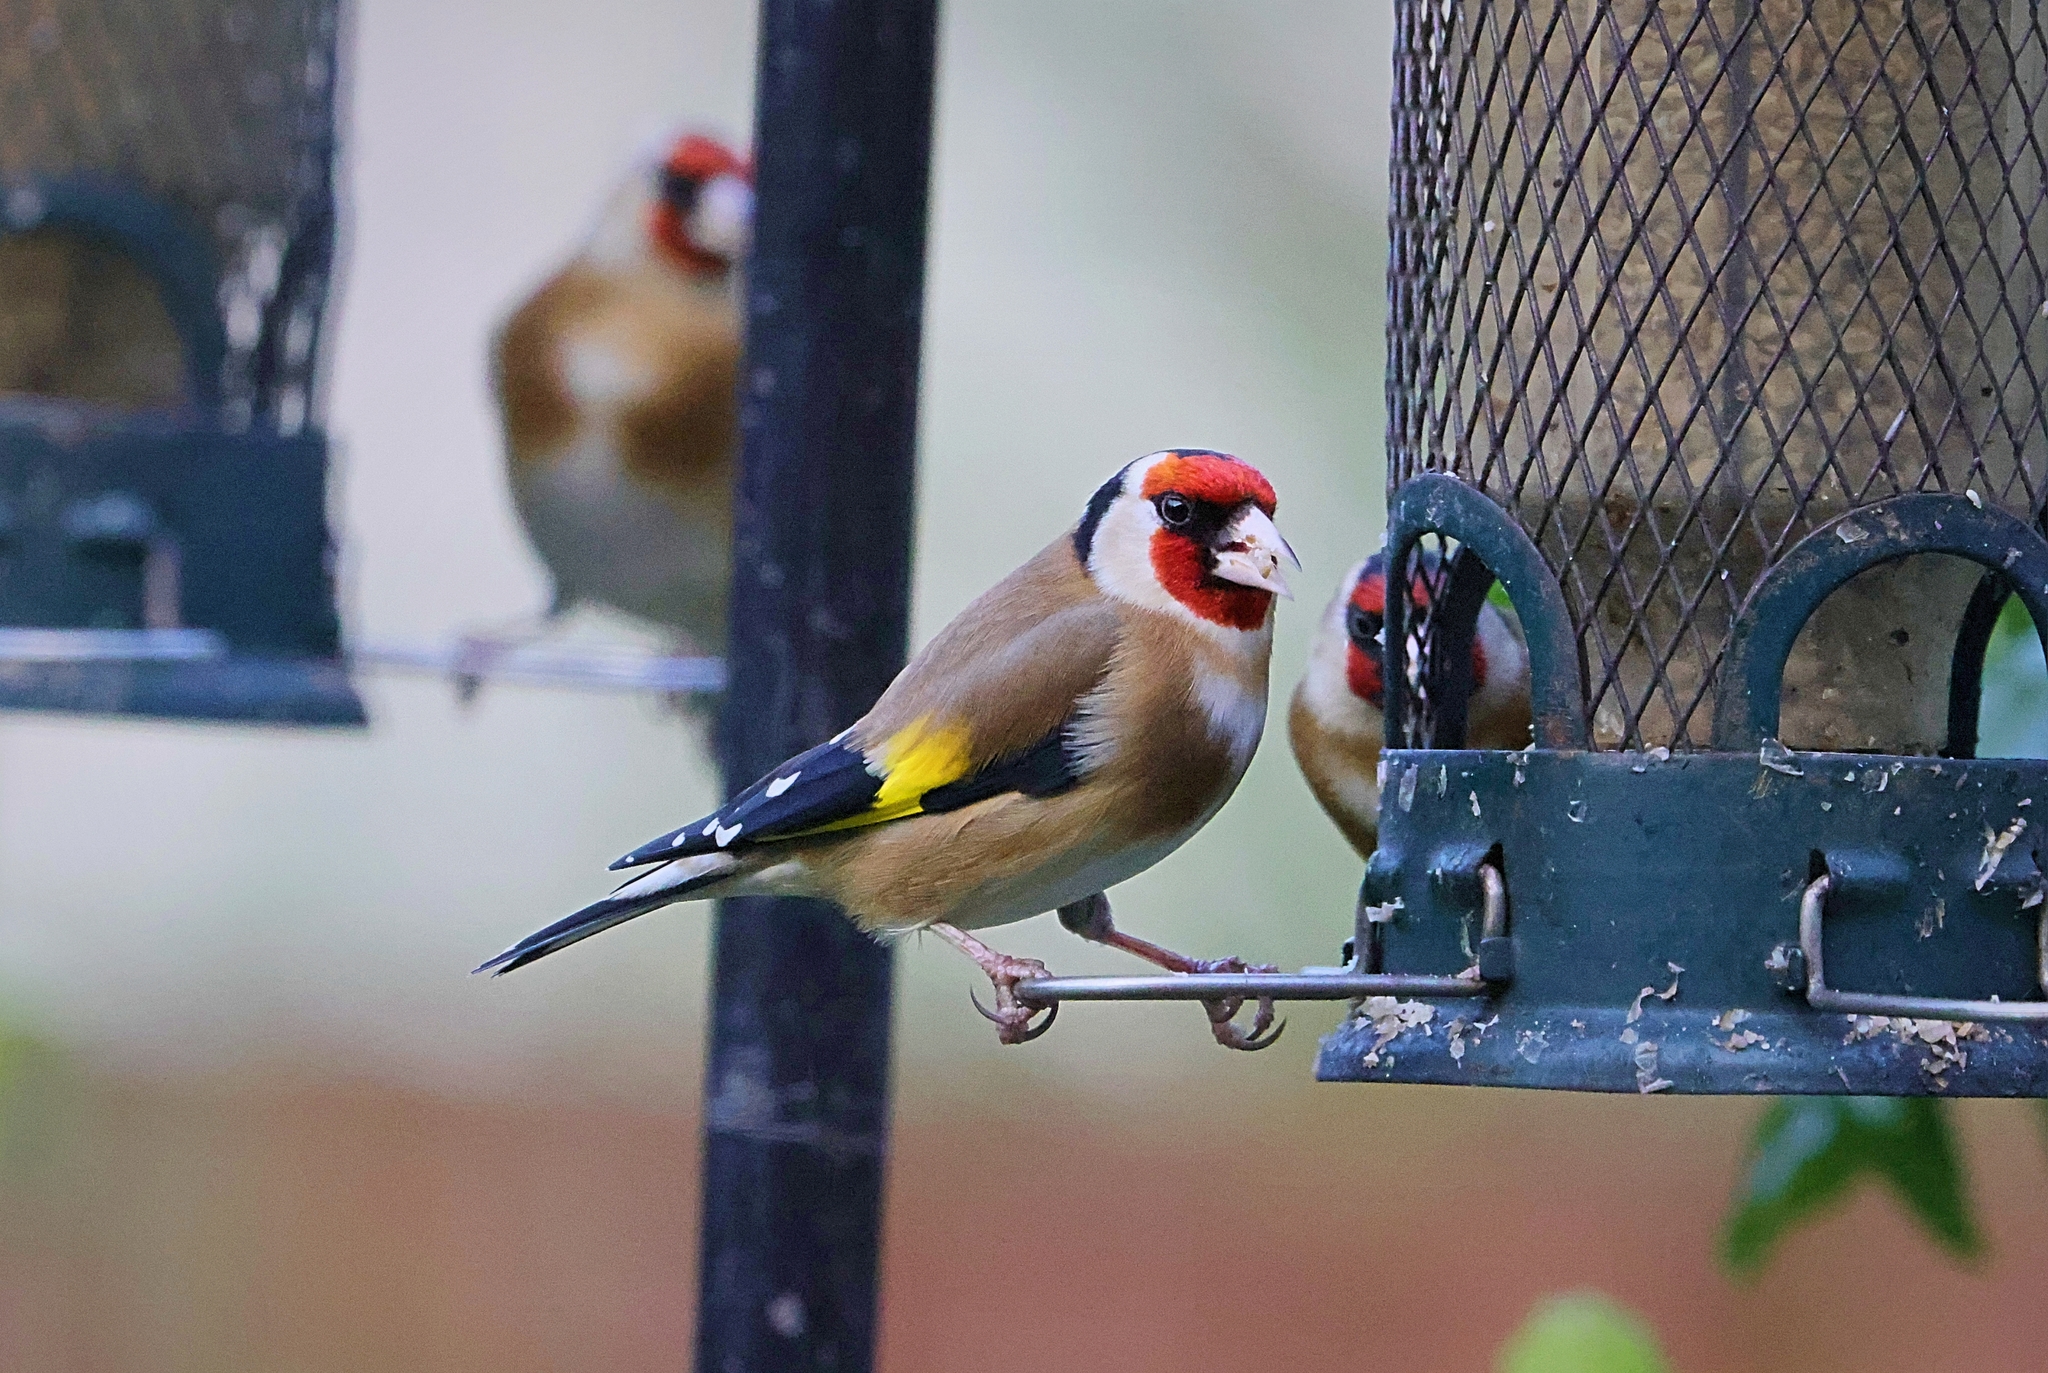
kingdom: Animalia
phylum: Chordata
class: Aves
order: Passeriformes
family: Fringillidae
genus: Carduelis
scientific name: Carduelis carduelis
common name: European goldfinch
